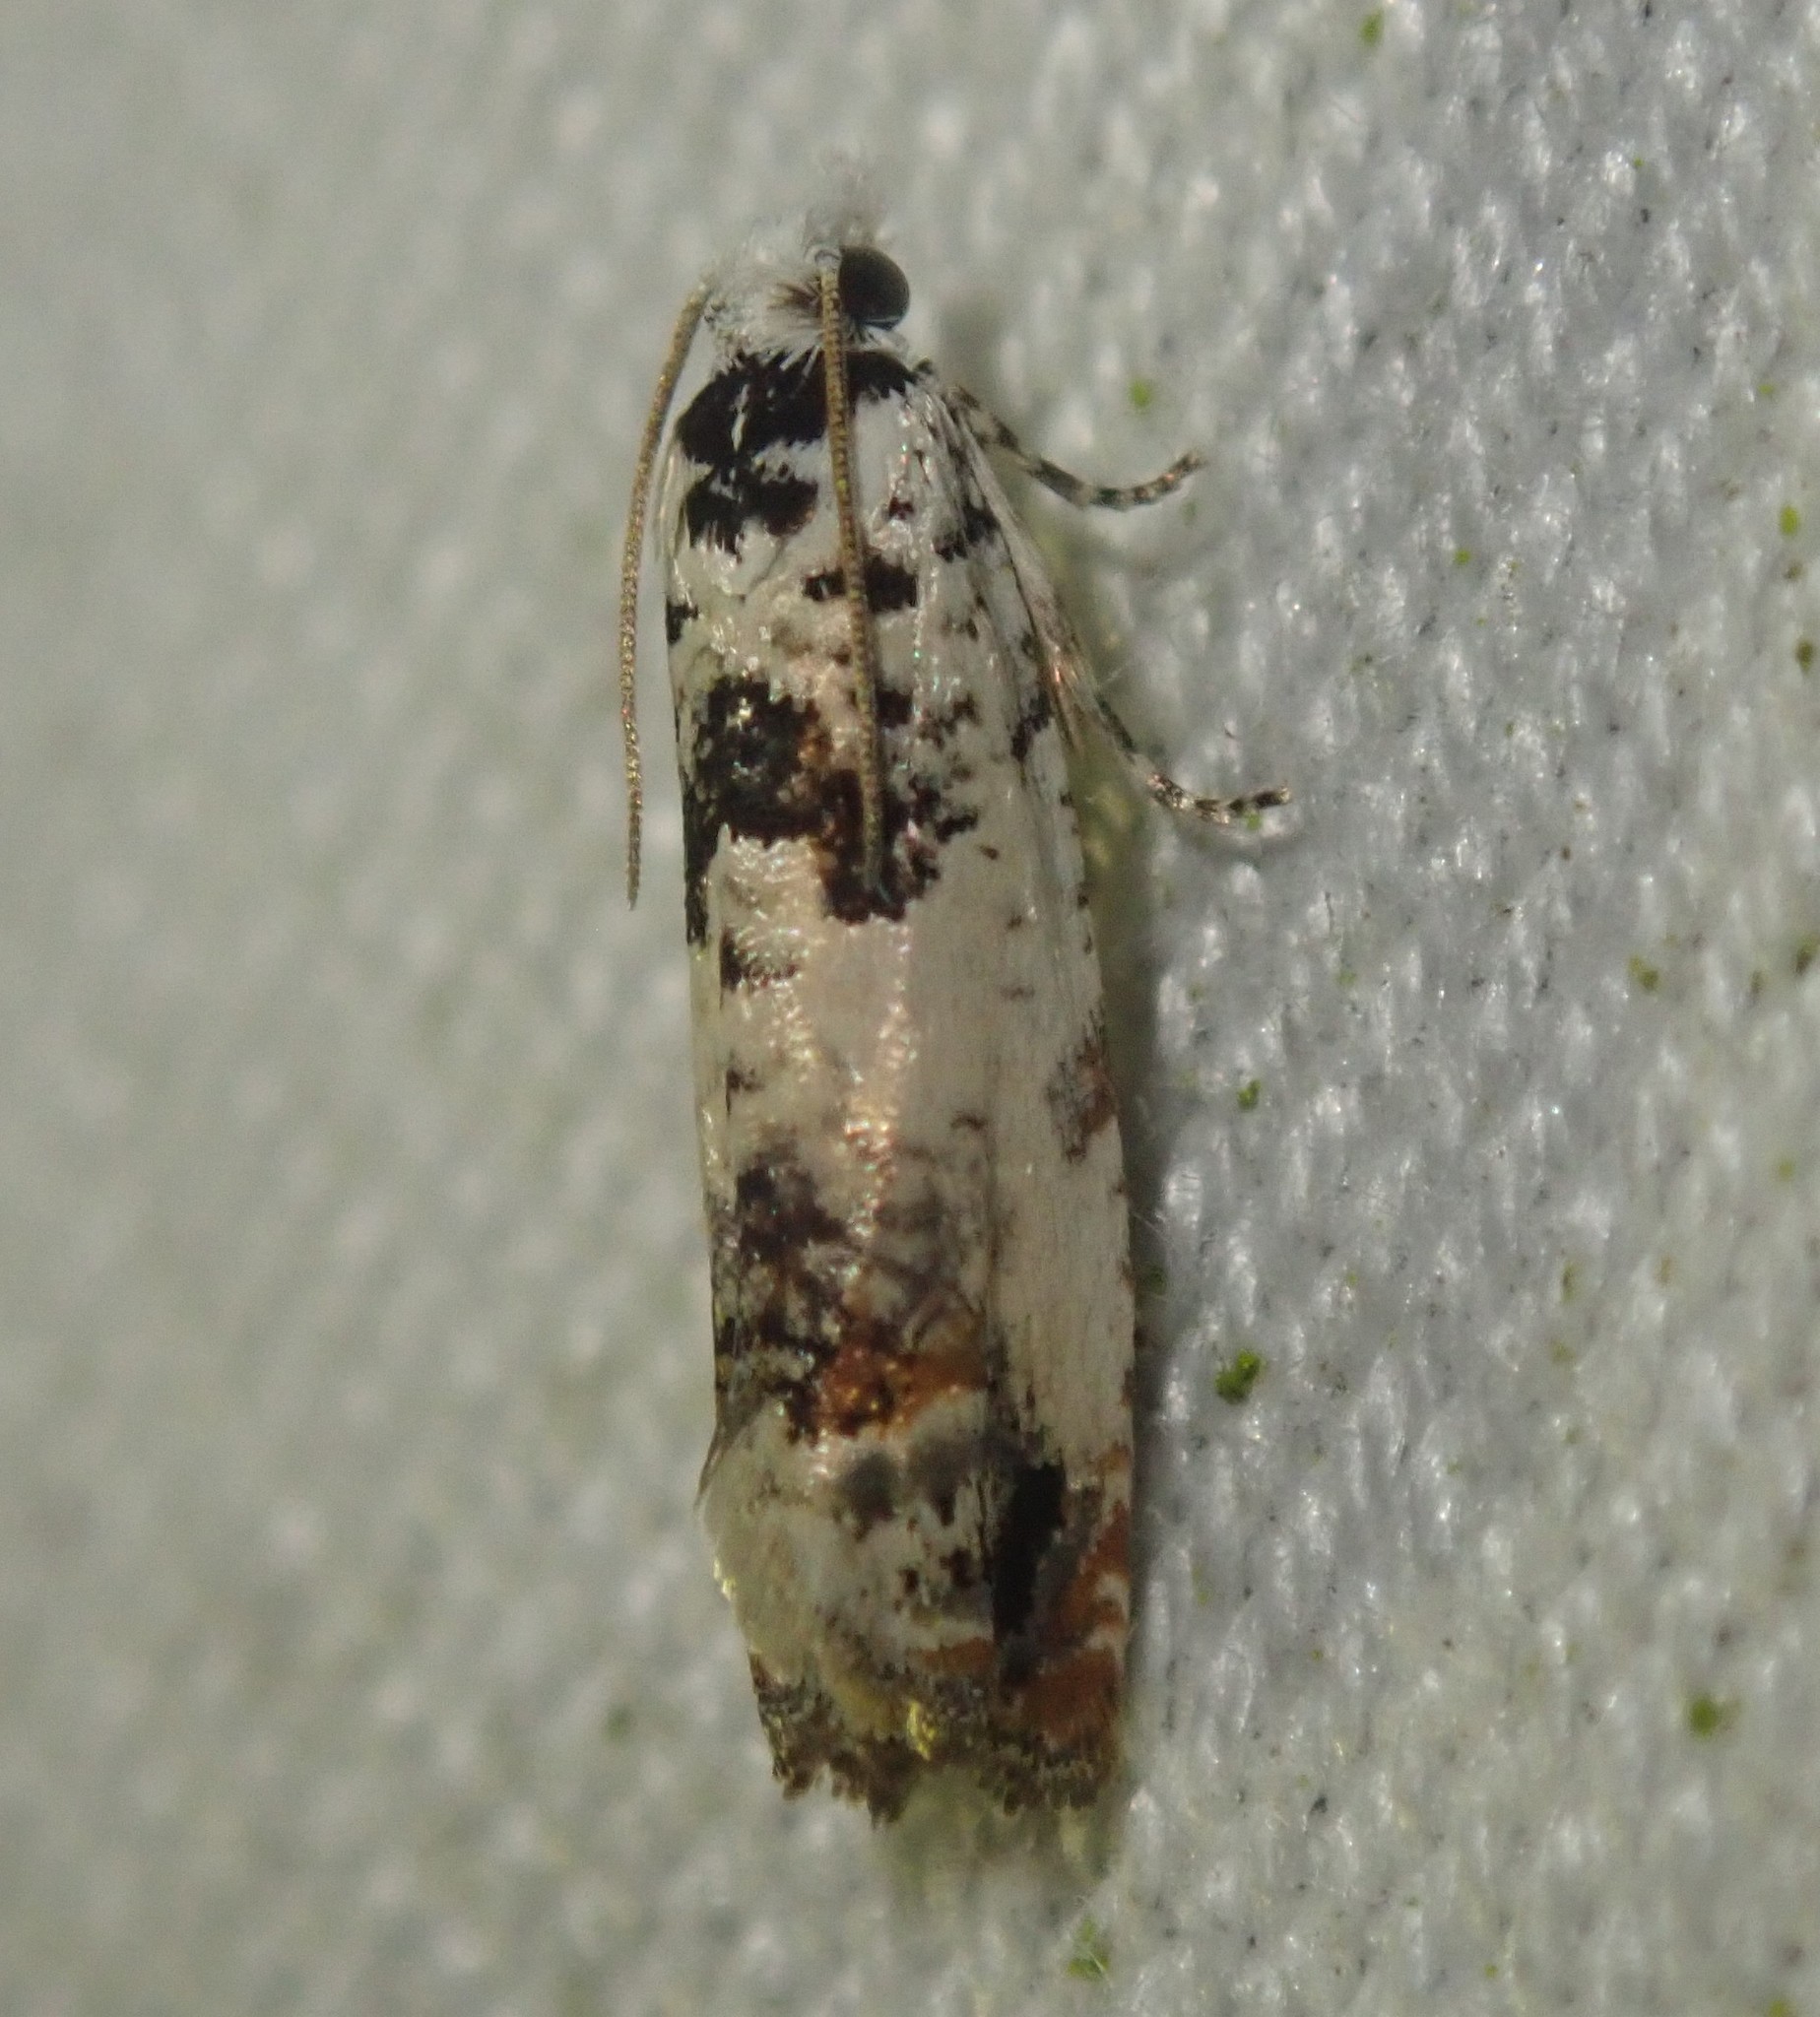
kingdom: Animalia
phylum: Arthropoda
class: Insecta
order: Lepidoptera
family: Tortricidae
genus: Eucosma
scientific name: Eucosma campoliliana
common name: Marbled bell
